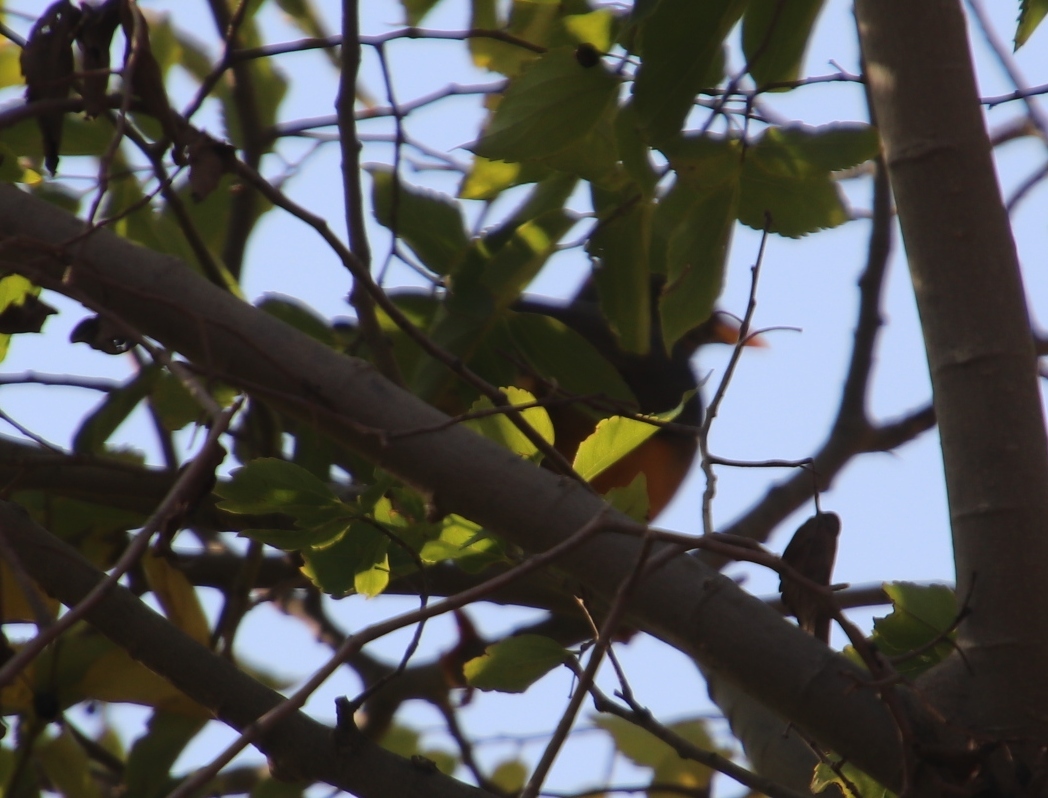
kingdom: Animalia
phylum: Chordata
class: Aves
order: Passeriformes
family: Turdidae
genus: Turdus
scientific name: Turdus olivaceus
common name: Olive thrush
